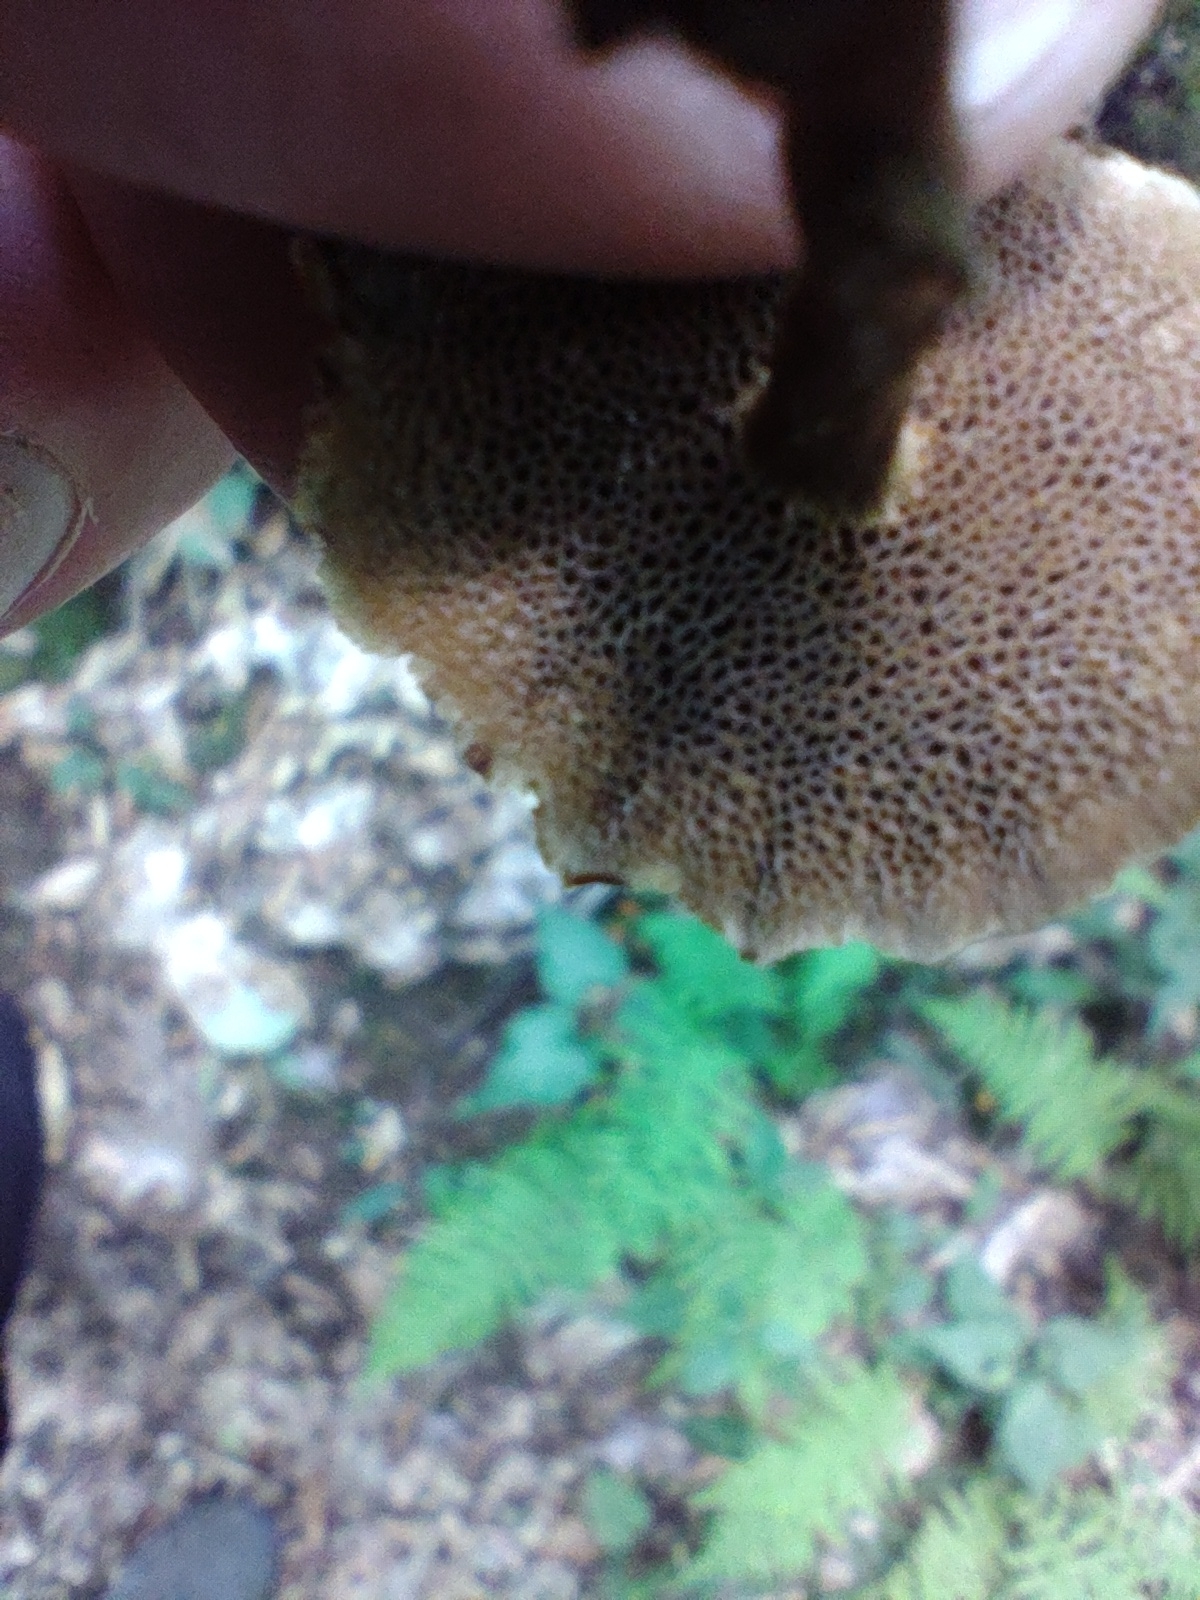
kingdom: Fungi
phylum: Basidiomycota
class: Agaricomycetes
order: Hymenochaetales
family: Hymenochaetaceae
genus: Coltricia
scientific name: Coltricia cinnamomea
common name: Shiny cinnamon polypore
